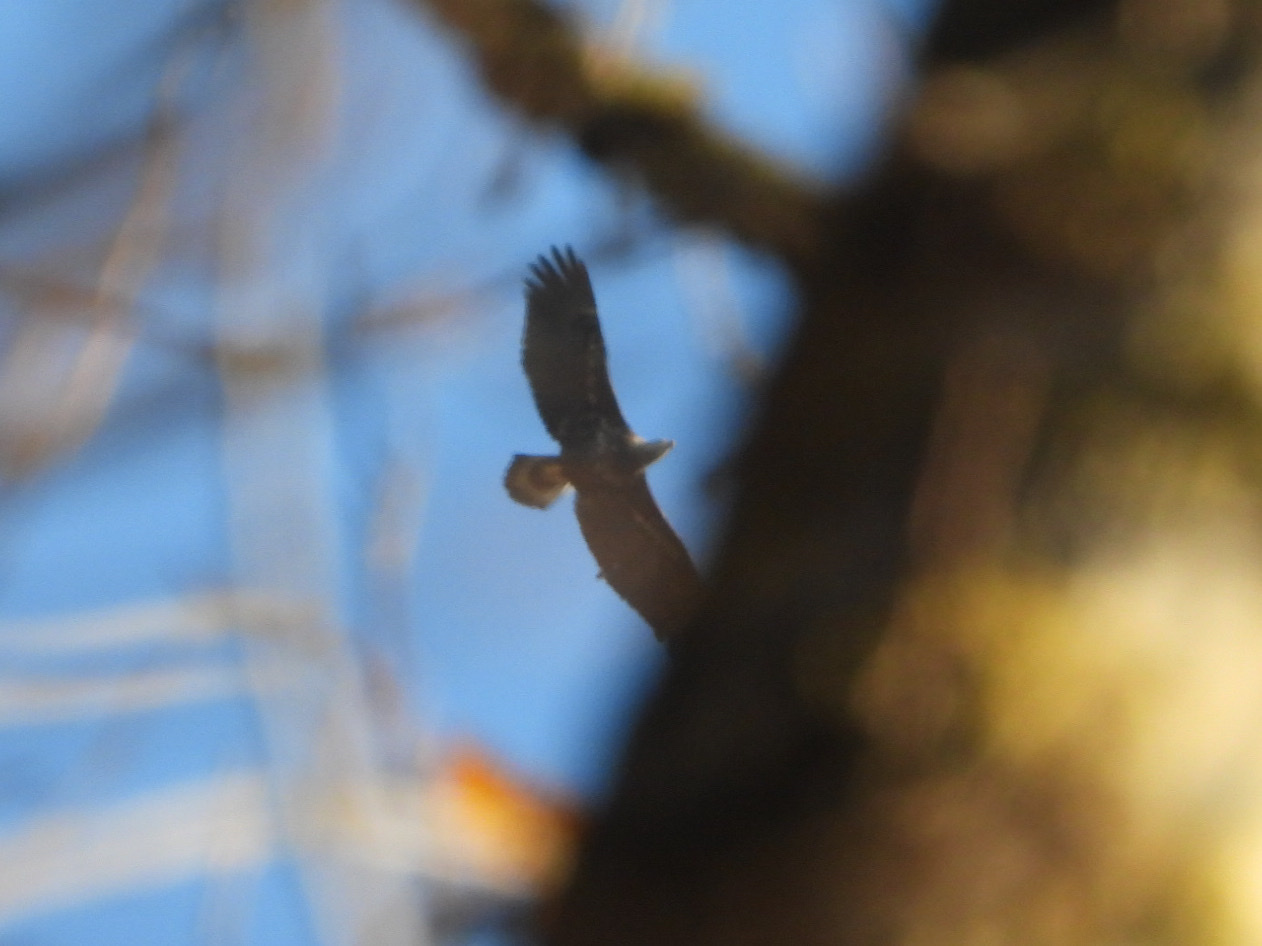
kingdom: Animalia
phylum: Chordata
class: Aves
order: Accipitriformes
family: Accipitridae
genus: Haliaeetus
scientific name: Haliaeetus leucocephalus
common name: Bald eagle
